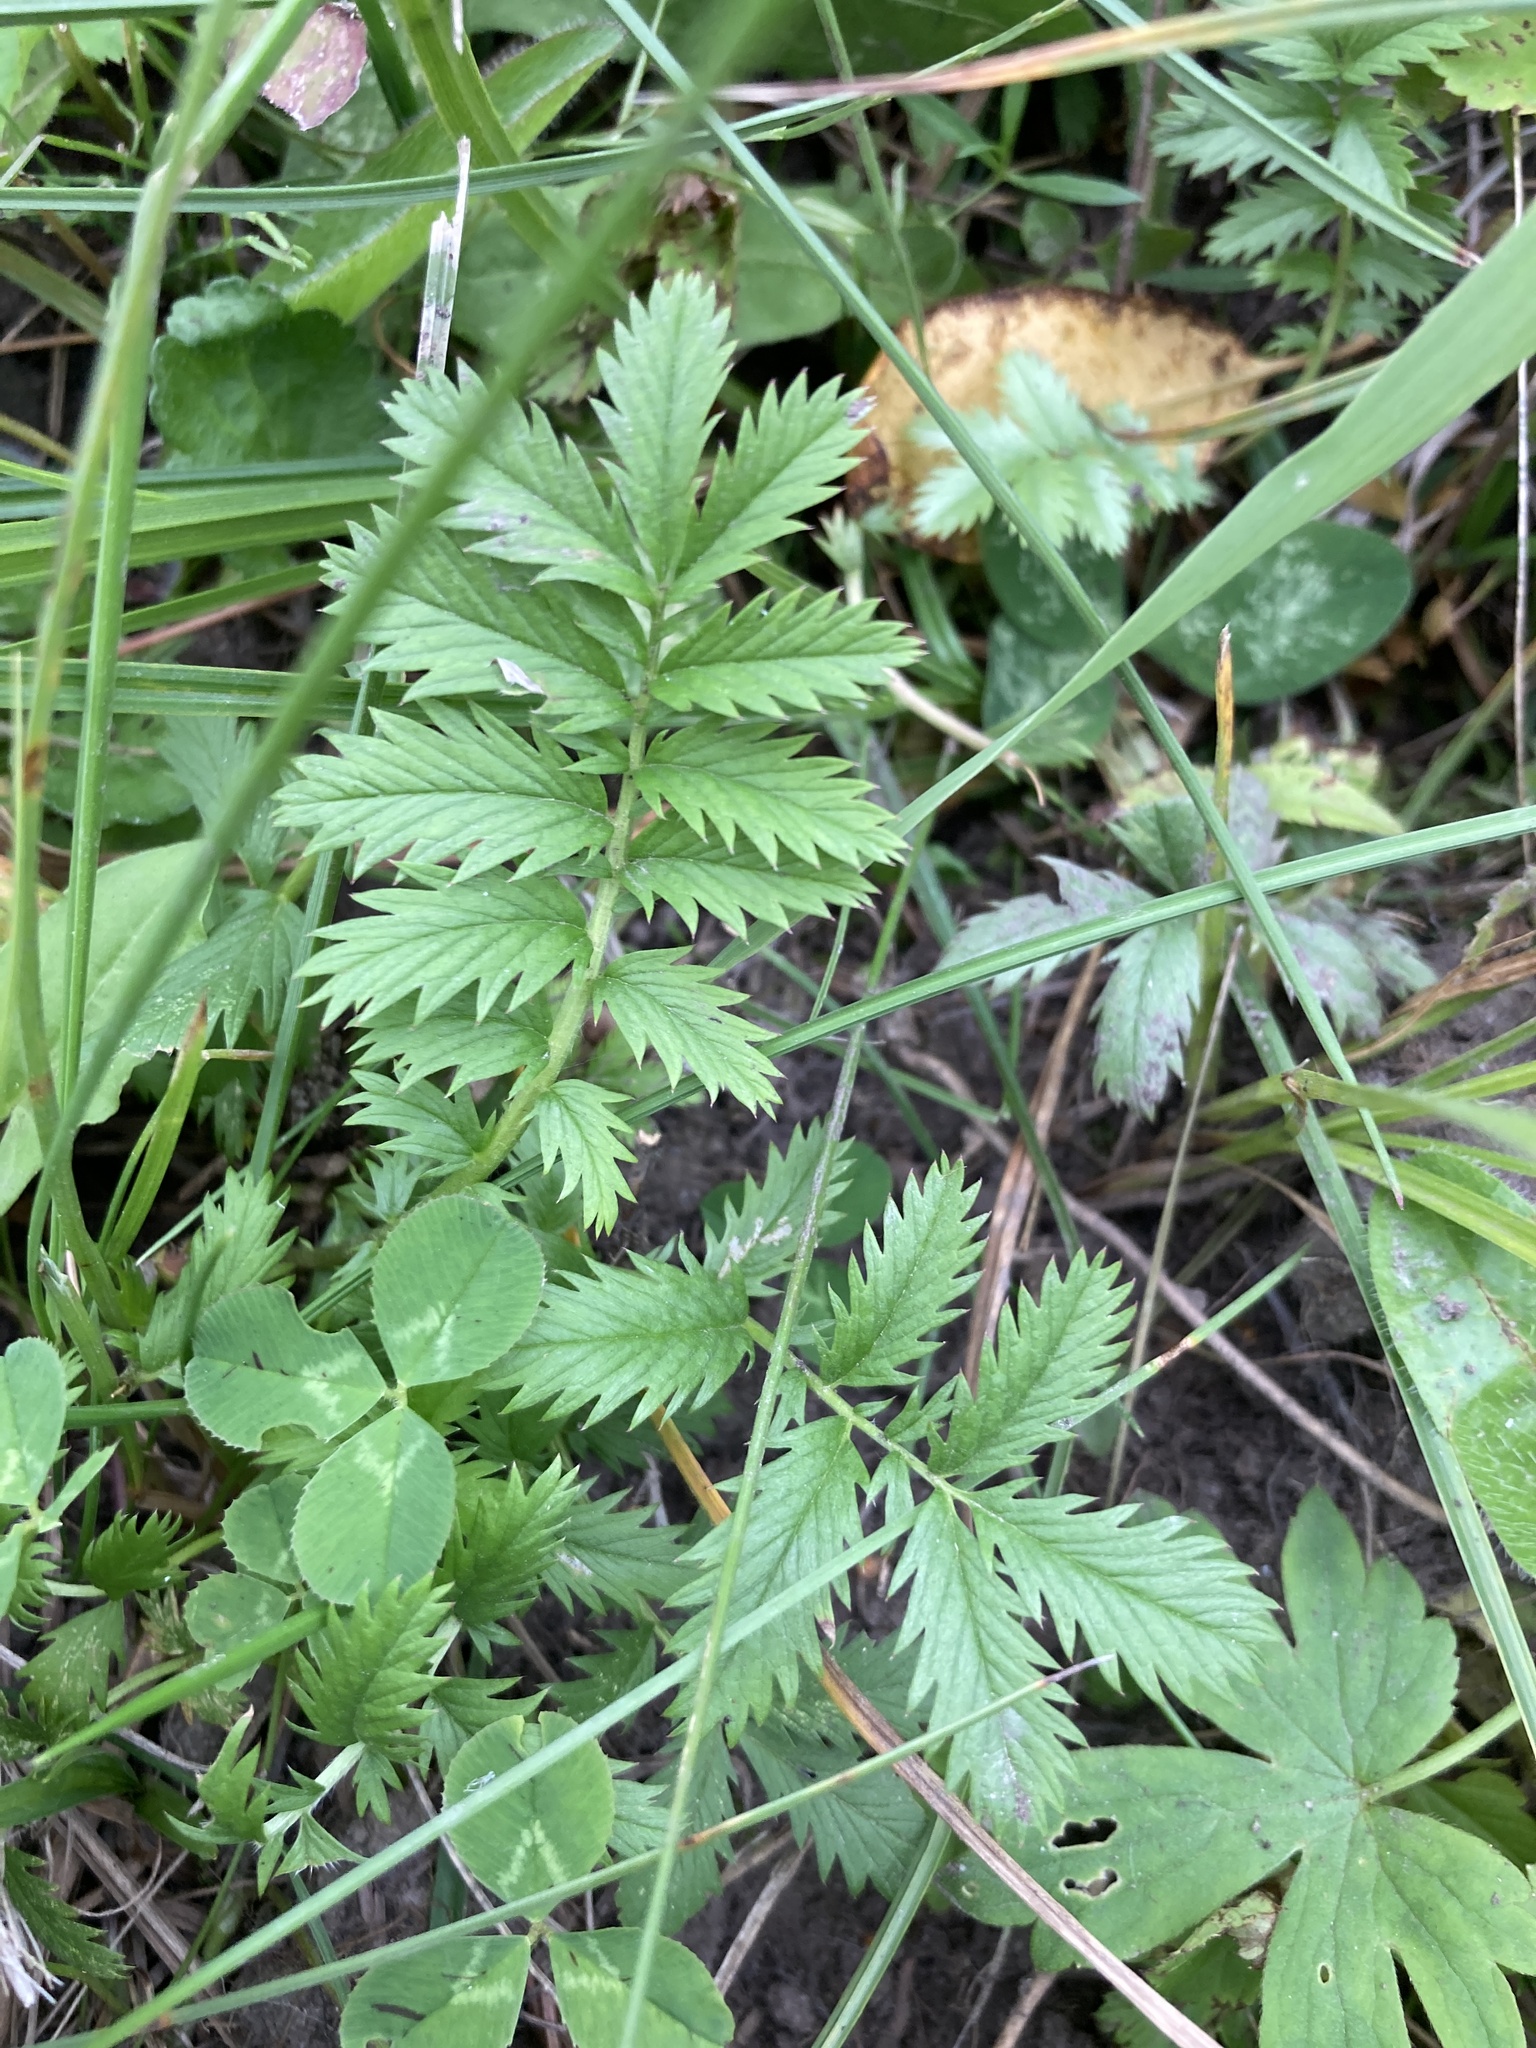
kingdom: Plantae
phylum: Tracheophyta
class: Magnoliopsida
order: Rosales
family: Rosaceae
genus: Argentina
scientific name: Argentina anserina
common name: Common silverweed
